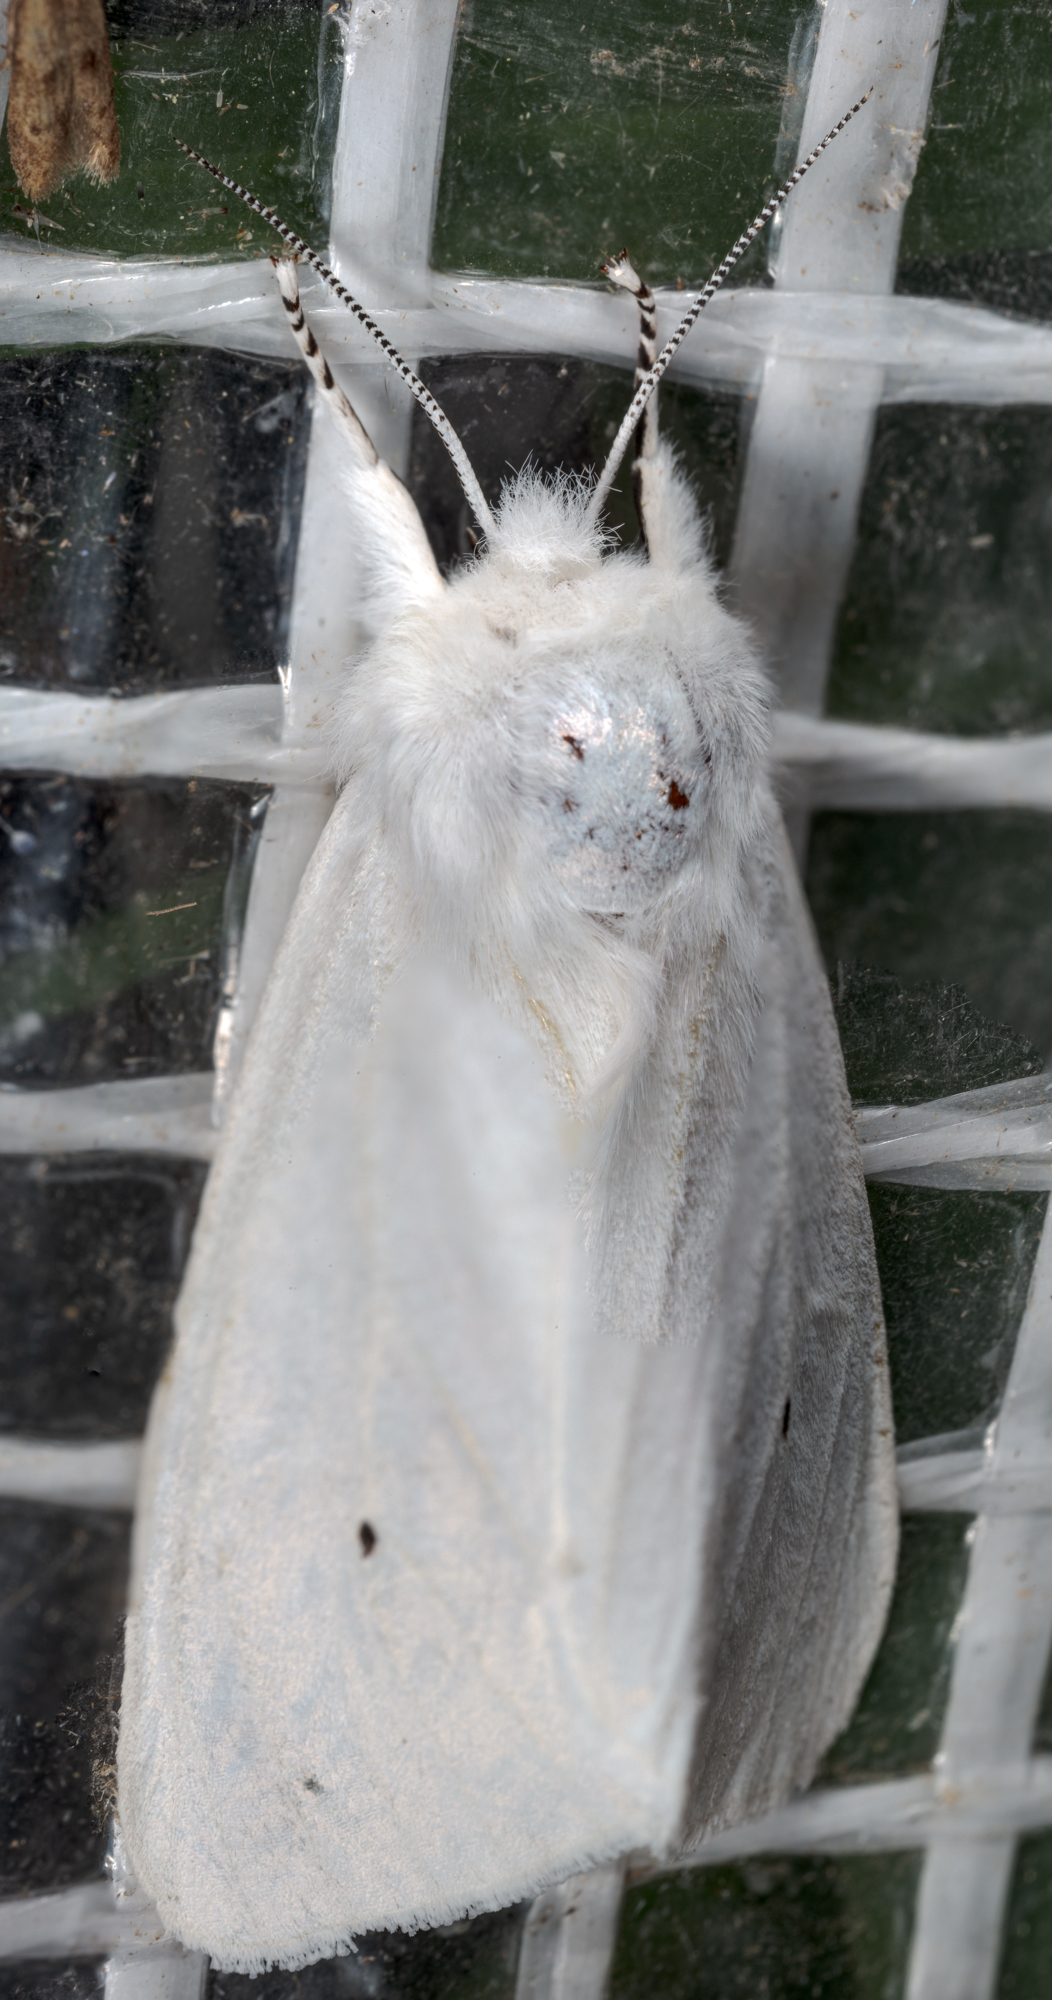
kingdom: Animalia
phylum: Arthropoda
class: Insecta
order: Lepidoptera
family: Erebidae
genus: Spilosoma
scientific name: Spilosoma virginica
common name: Virginia tiger moth
